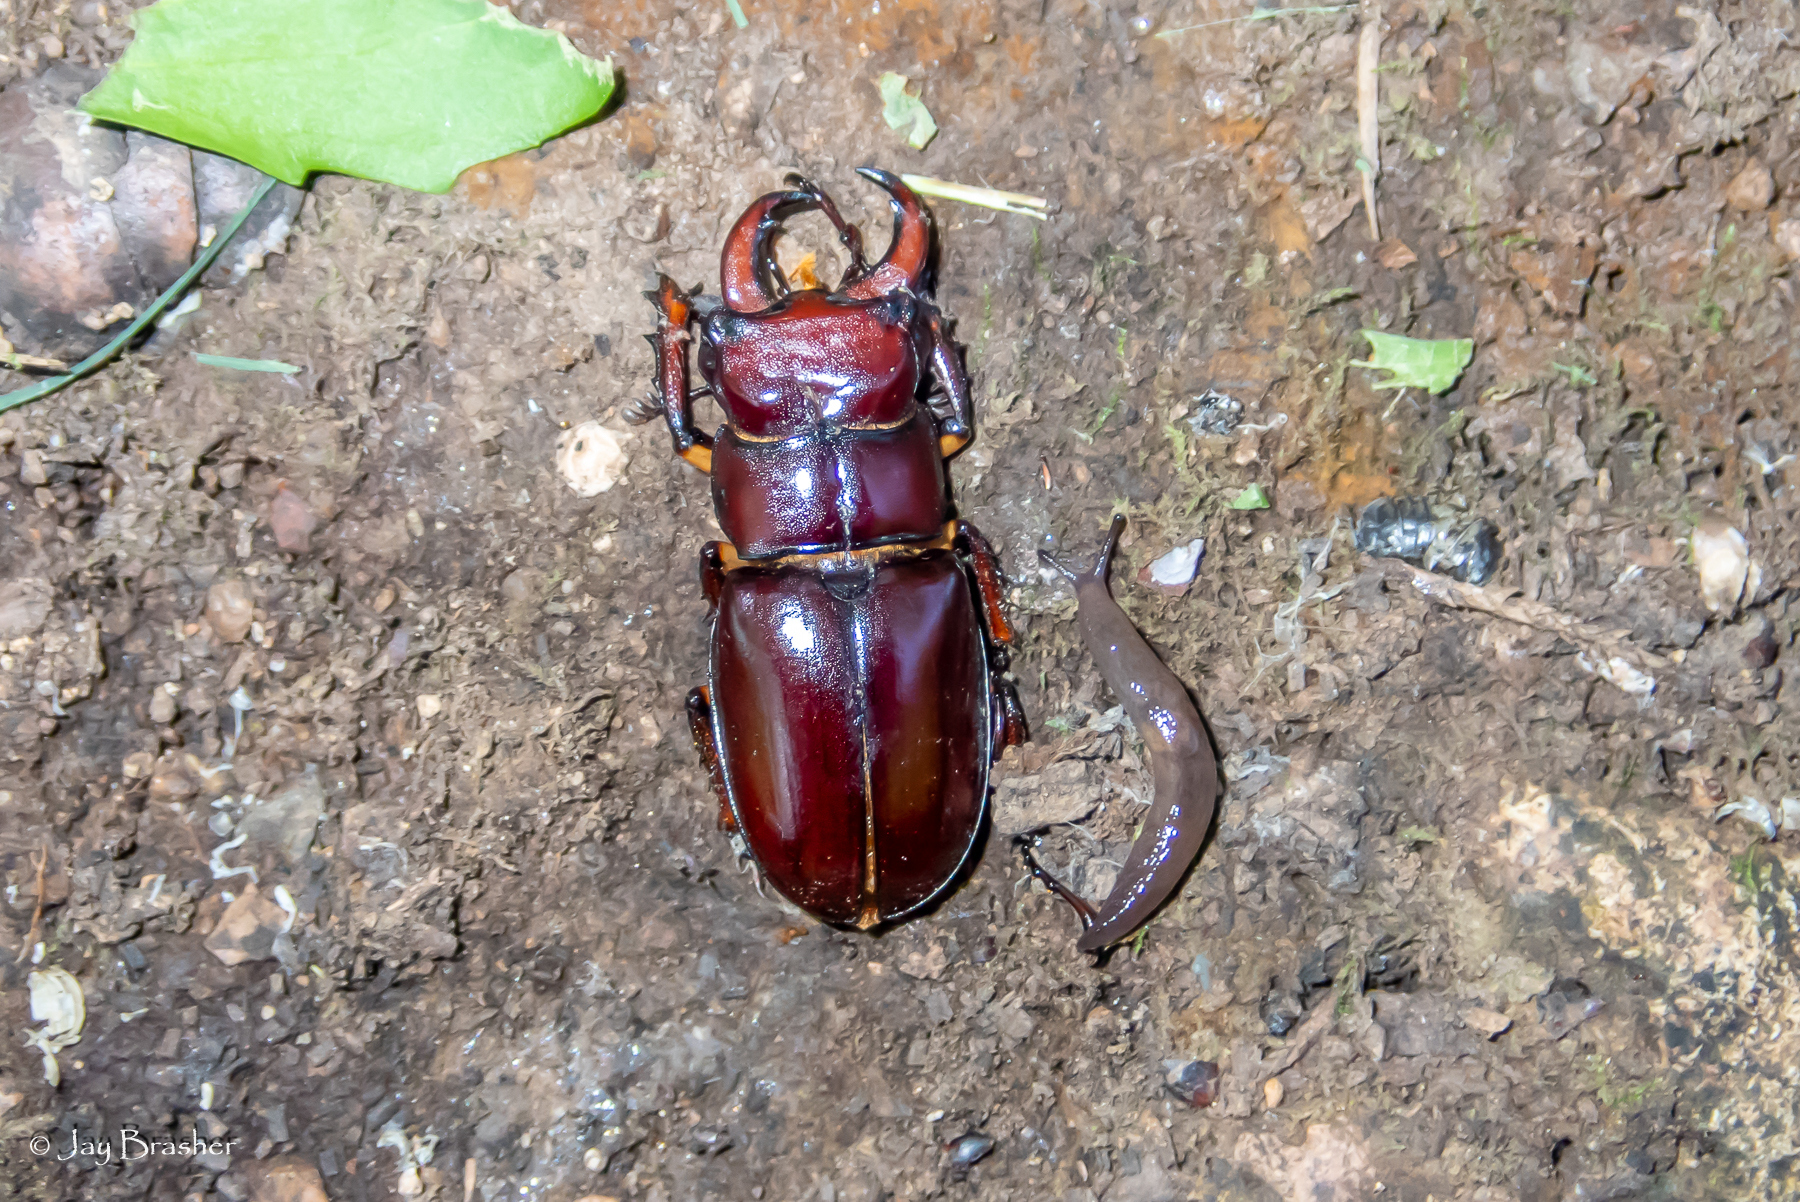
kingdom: Animalia
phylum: Arthropoda
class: Insecta
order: Coleoptera
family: Lucanidae
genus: Lucanus
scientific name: Lucanus capreolus
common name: Stag beetle
